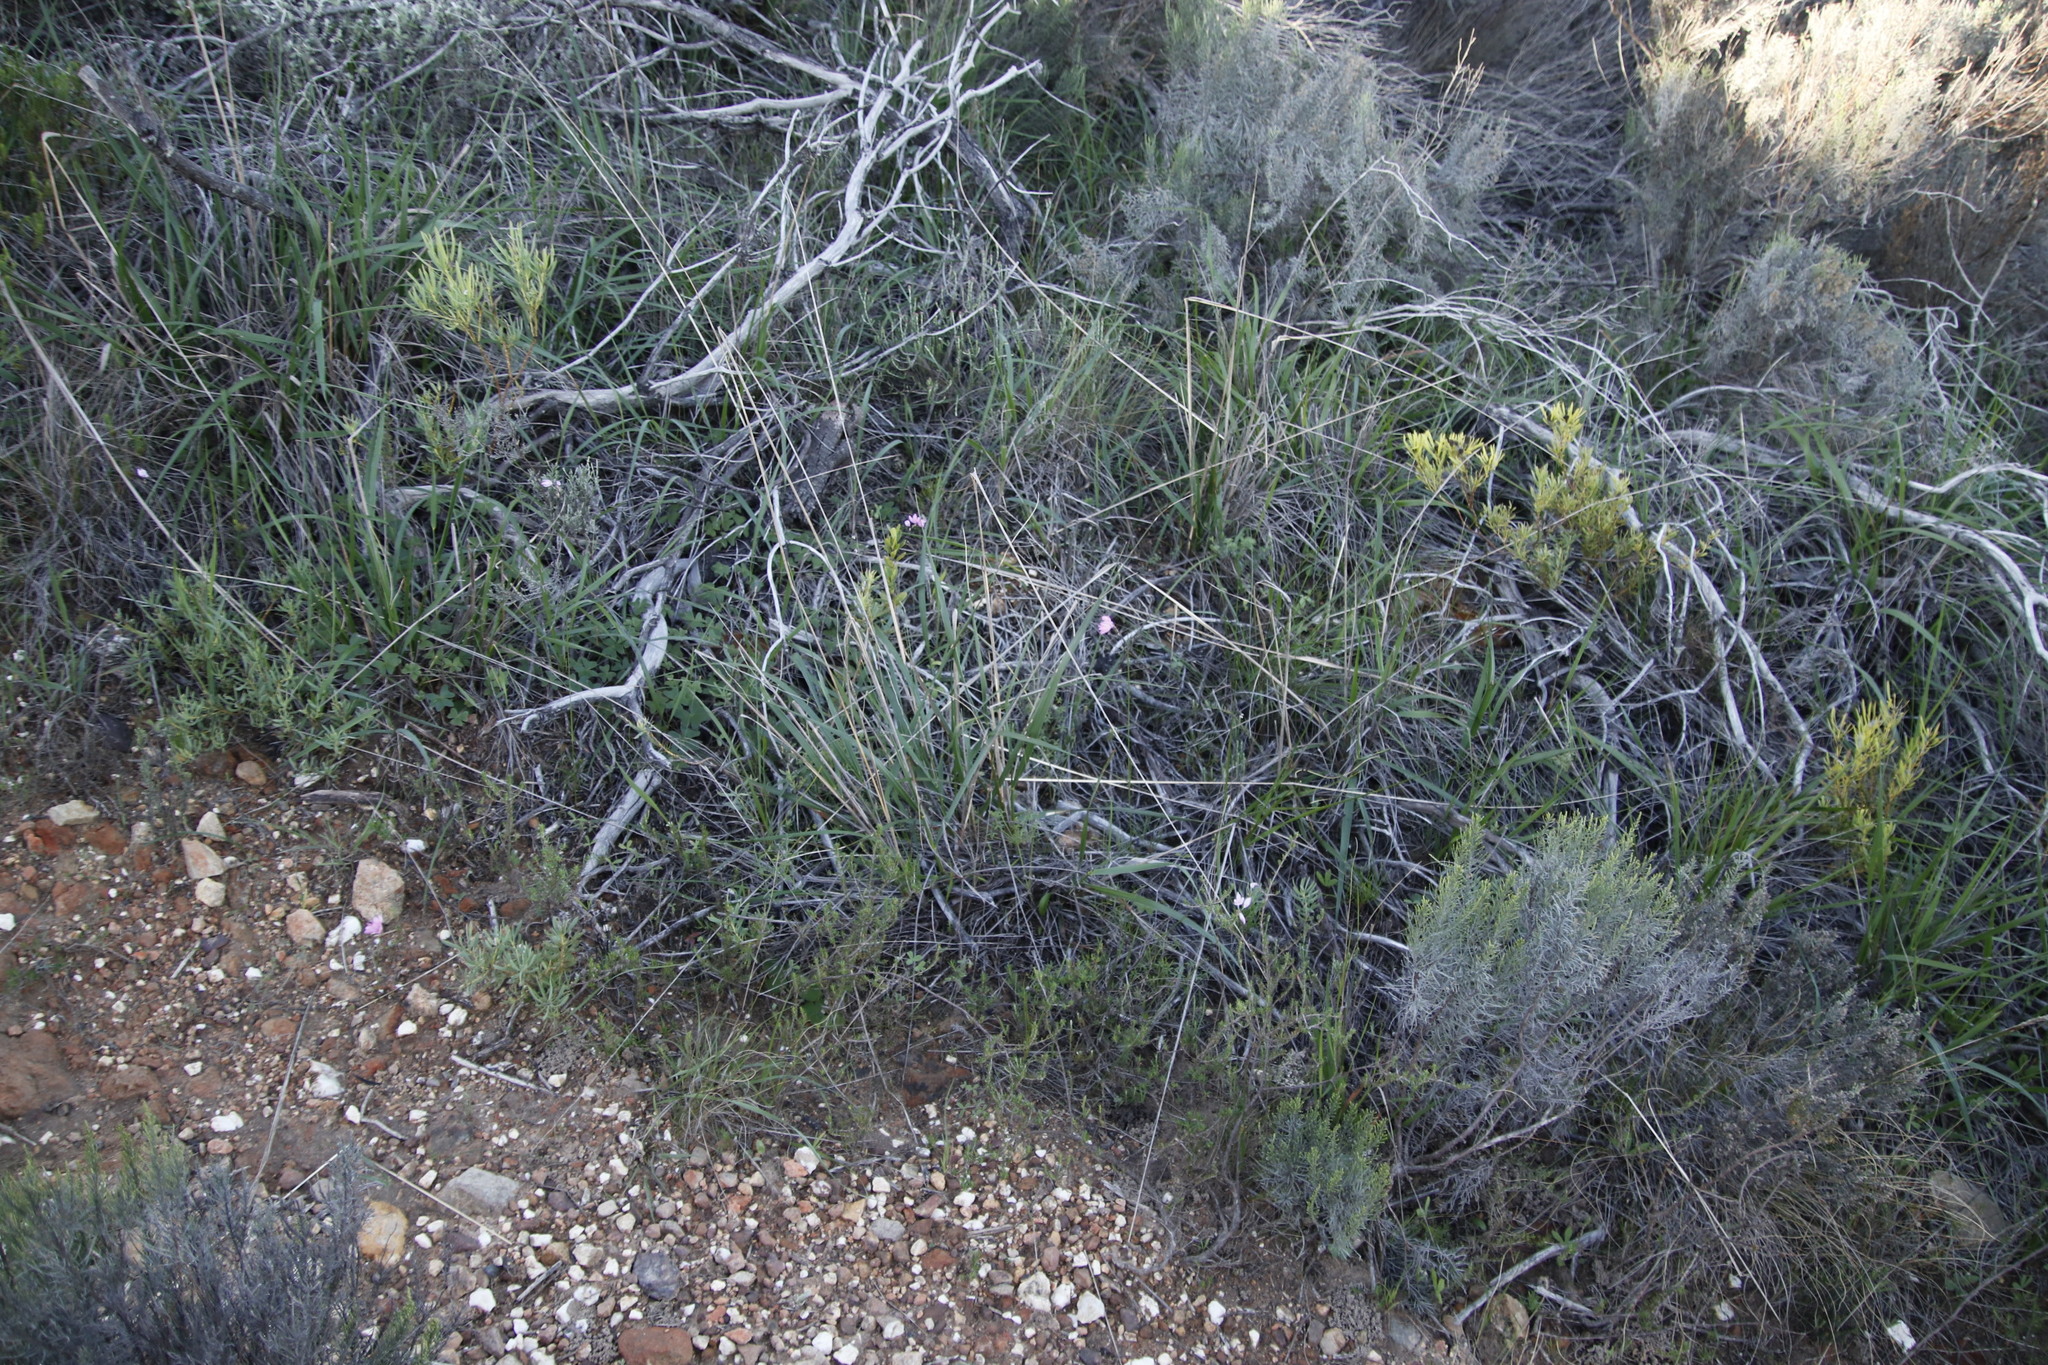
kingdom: Plantae
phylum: Tracheophyta
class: Liliopsida
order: Asparagales
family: Iridaceae
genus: Ixia
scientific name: Ixia micrandra
